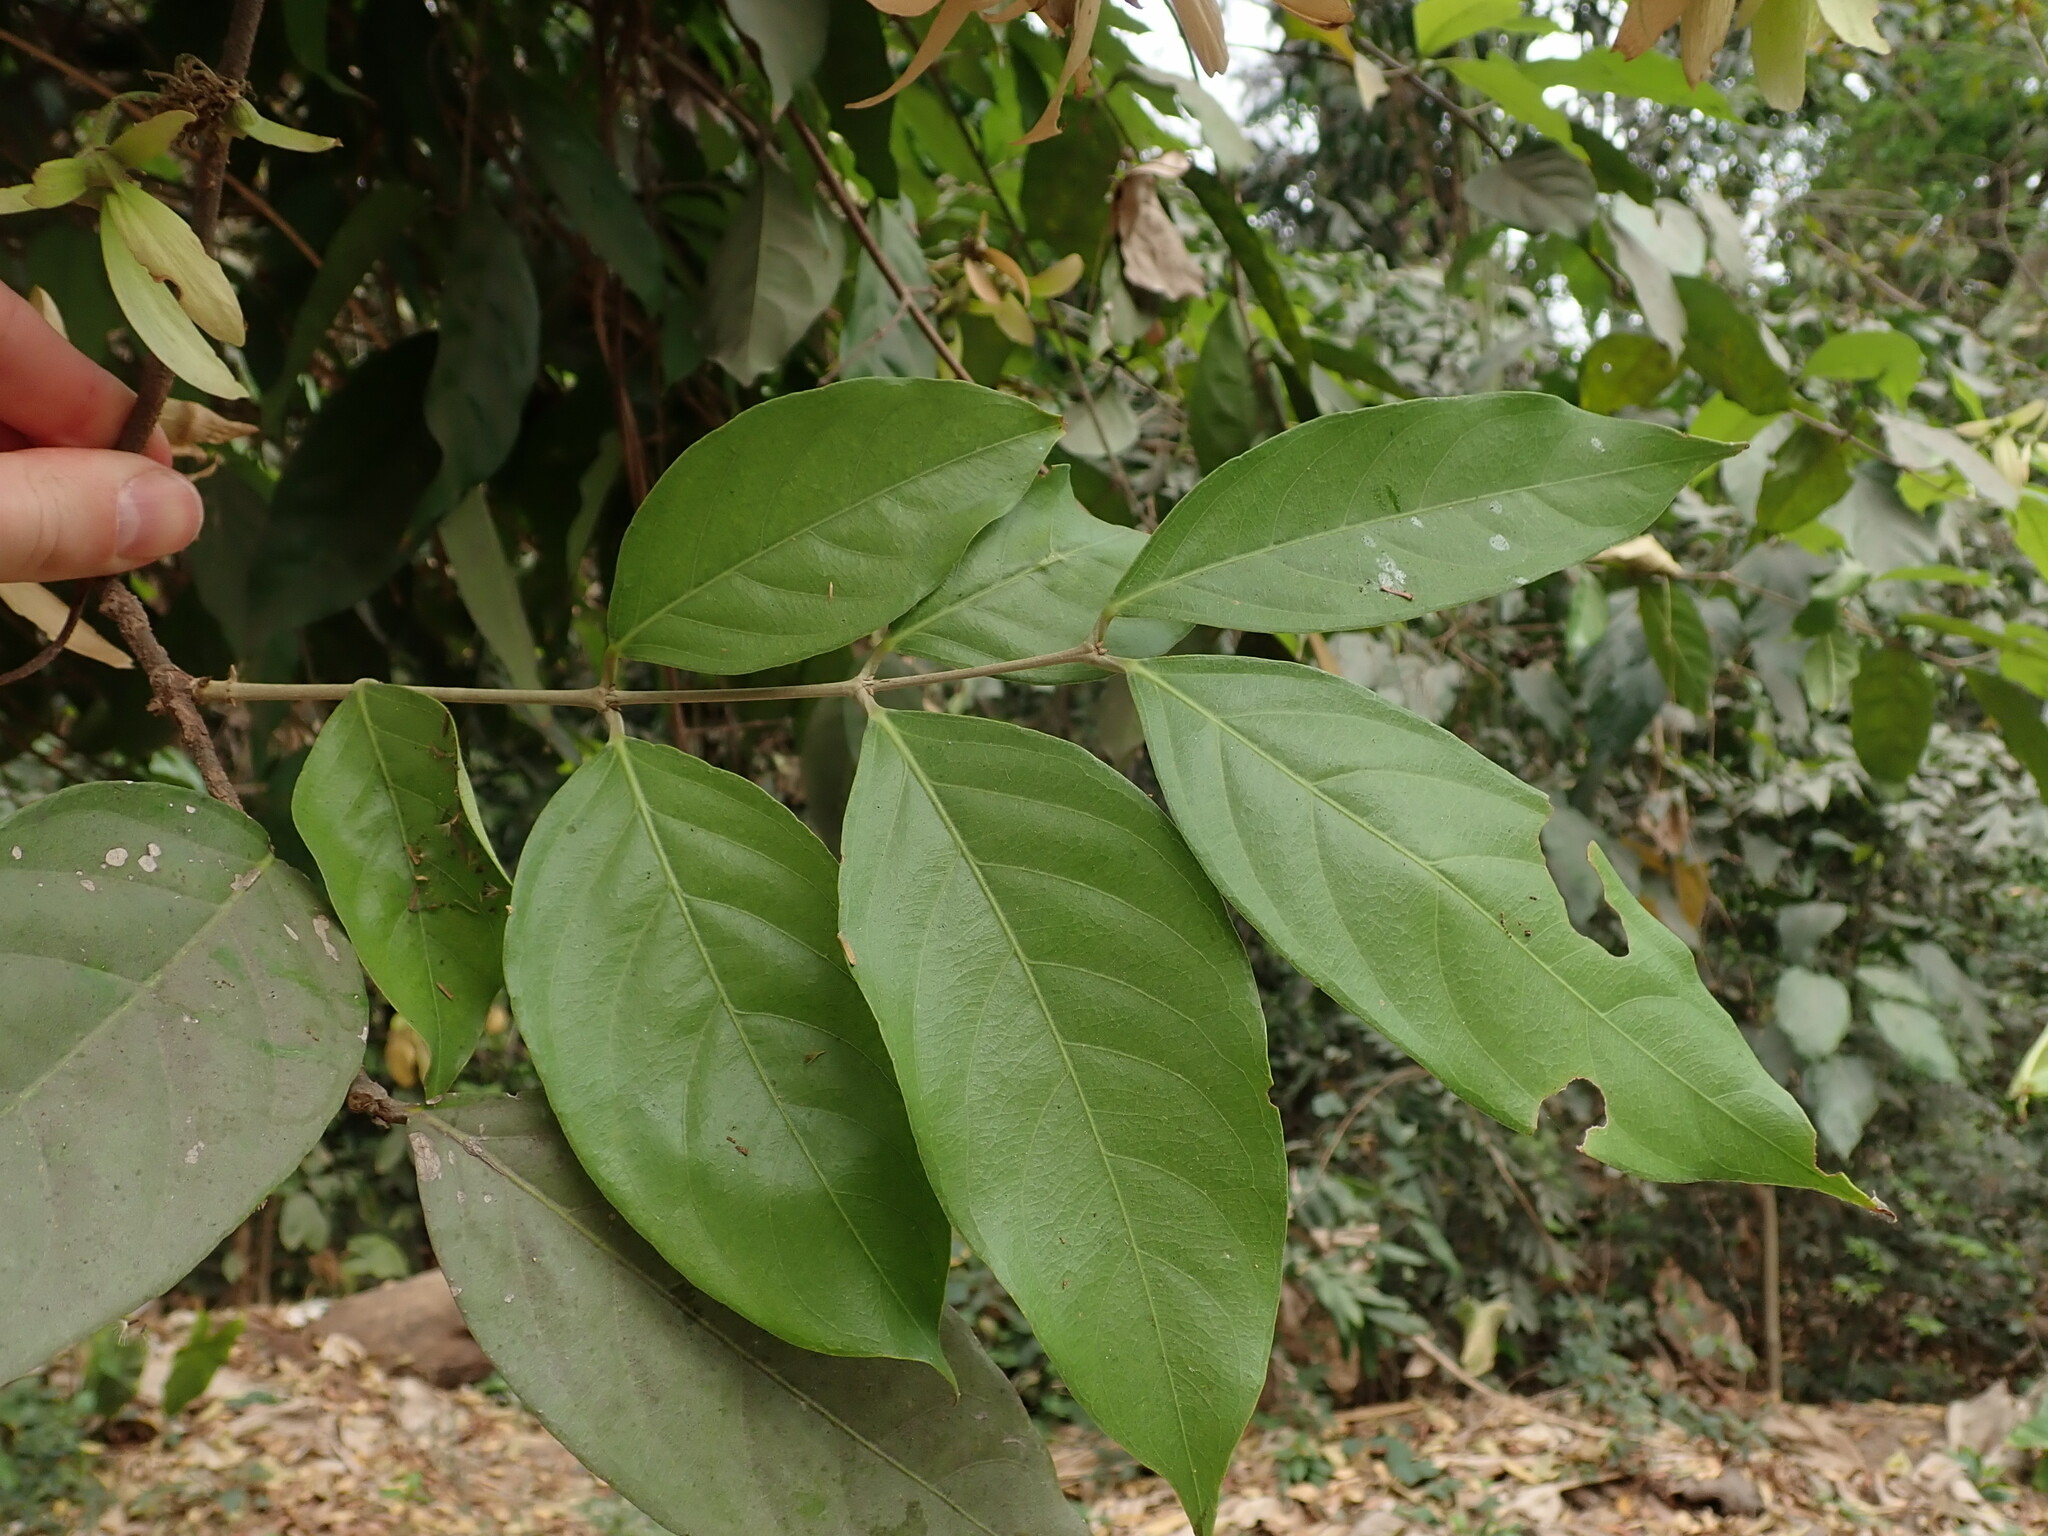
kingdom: Plantae
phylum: Tracheophyta
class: Magnoliopsida
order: Malpighiales
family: Malpighiaceae
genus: Hiptage
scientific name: Hiptage benghalensis
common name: Hiptage
